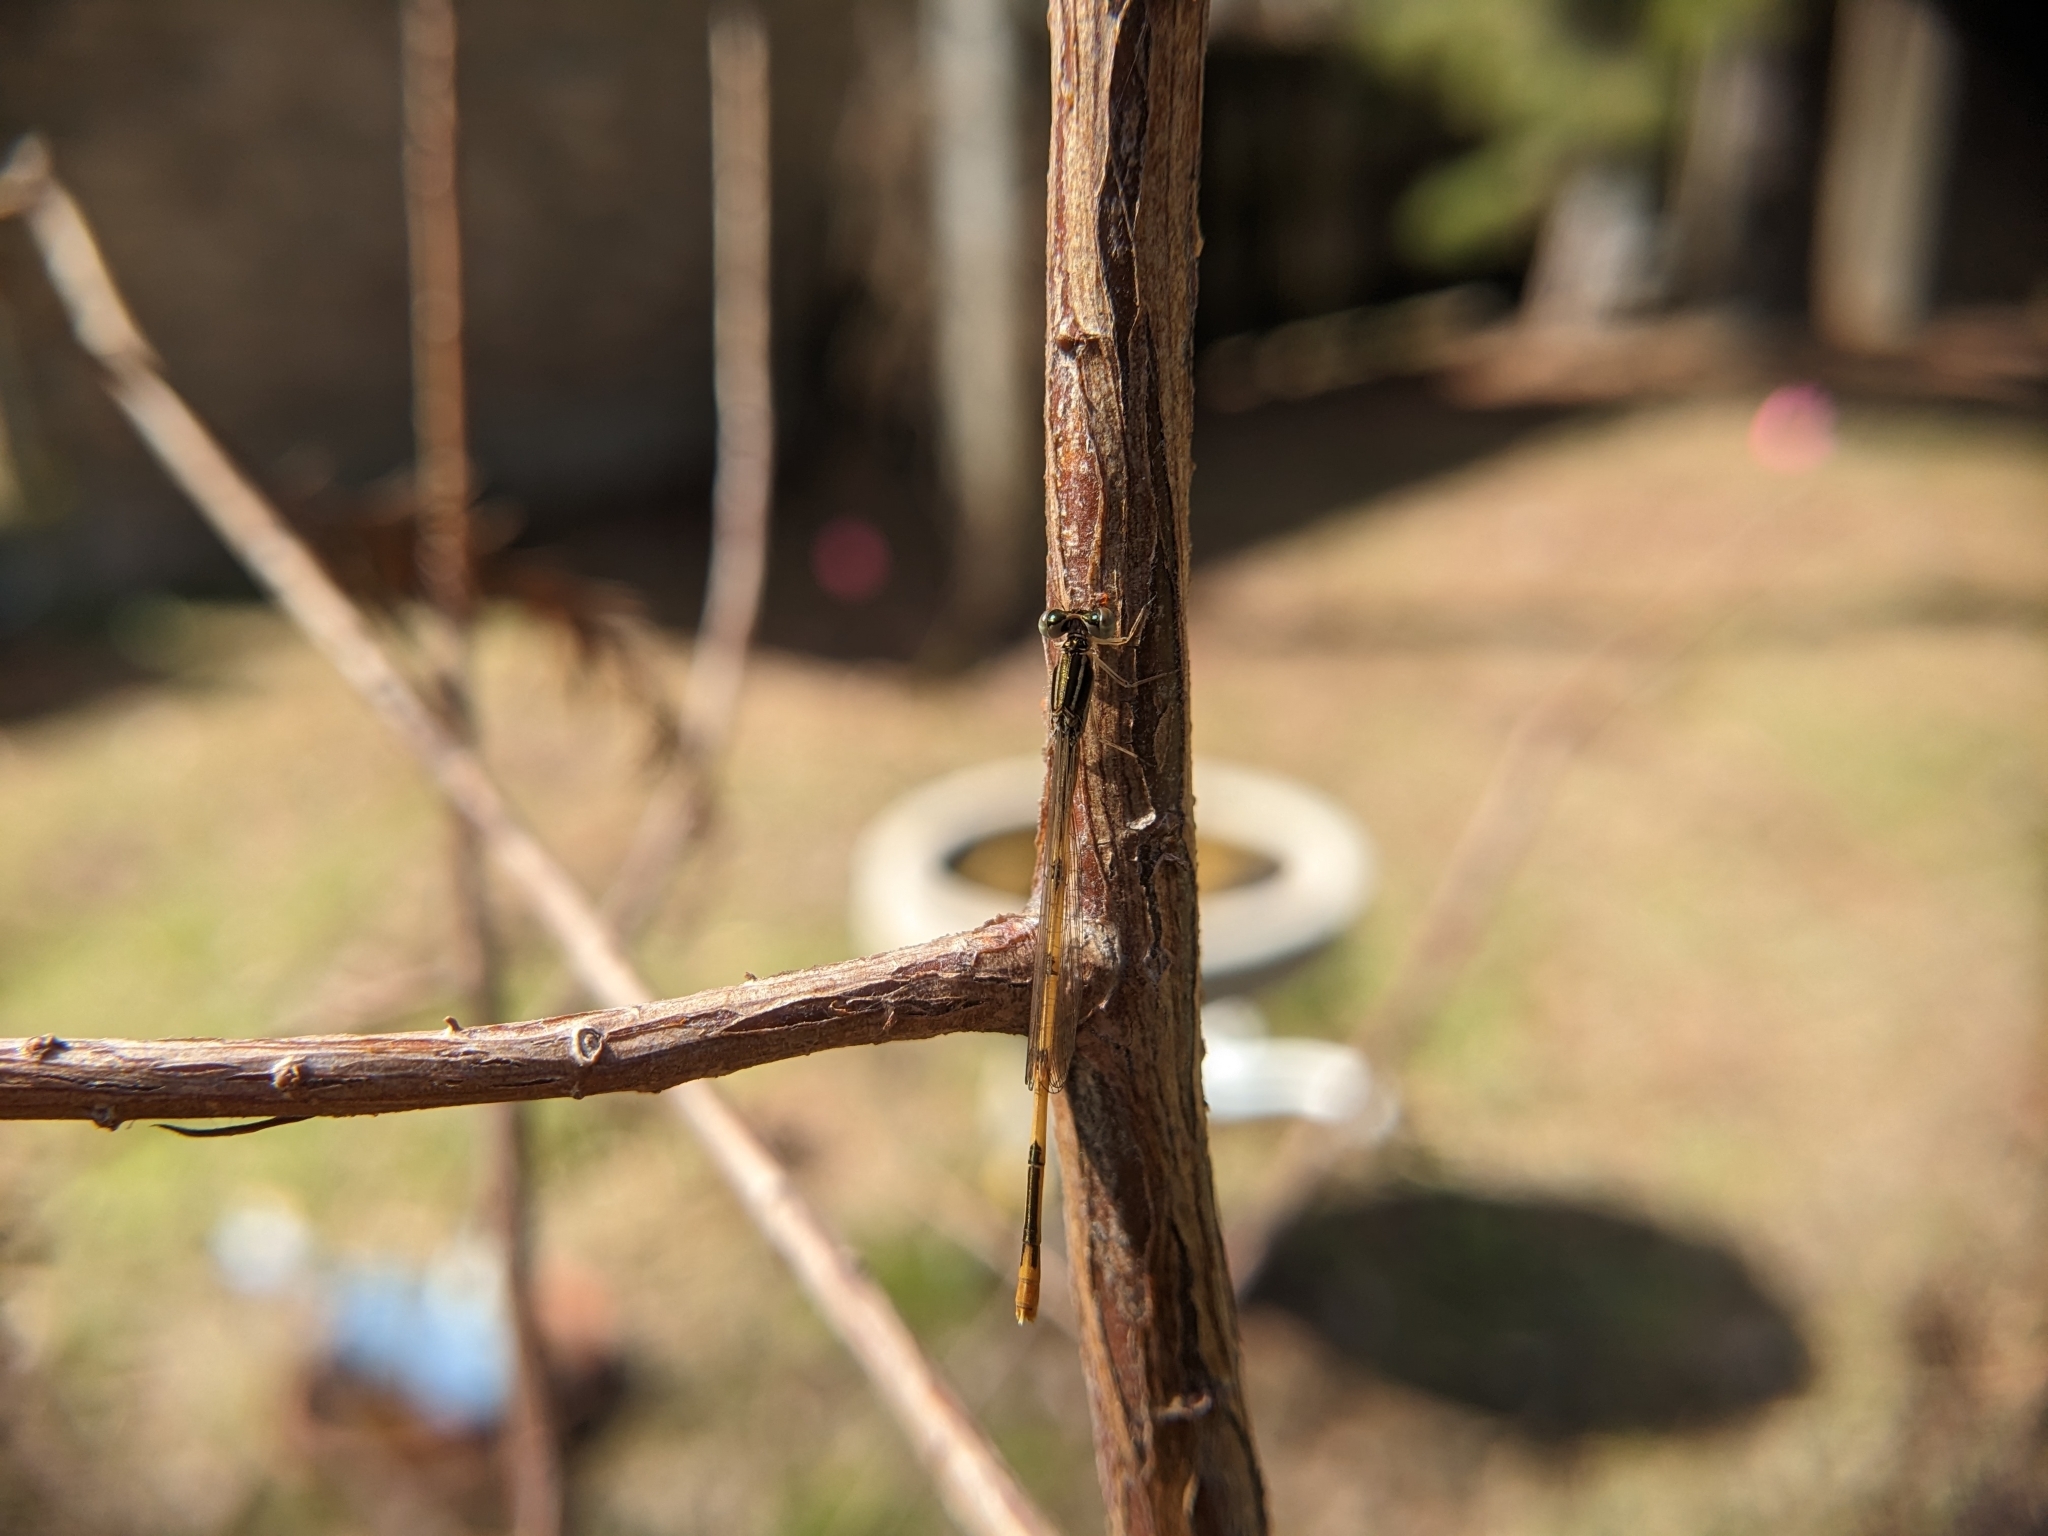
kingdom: Animalia
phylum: Arthropoda
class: Insecta
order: Odonata
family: Coenagrionidae
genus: Ischnura
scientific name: Ischnura hastata
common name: Citrine forktail
